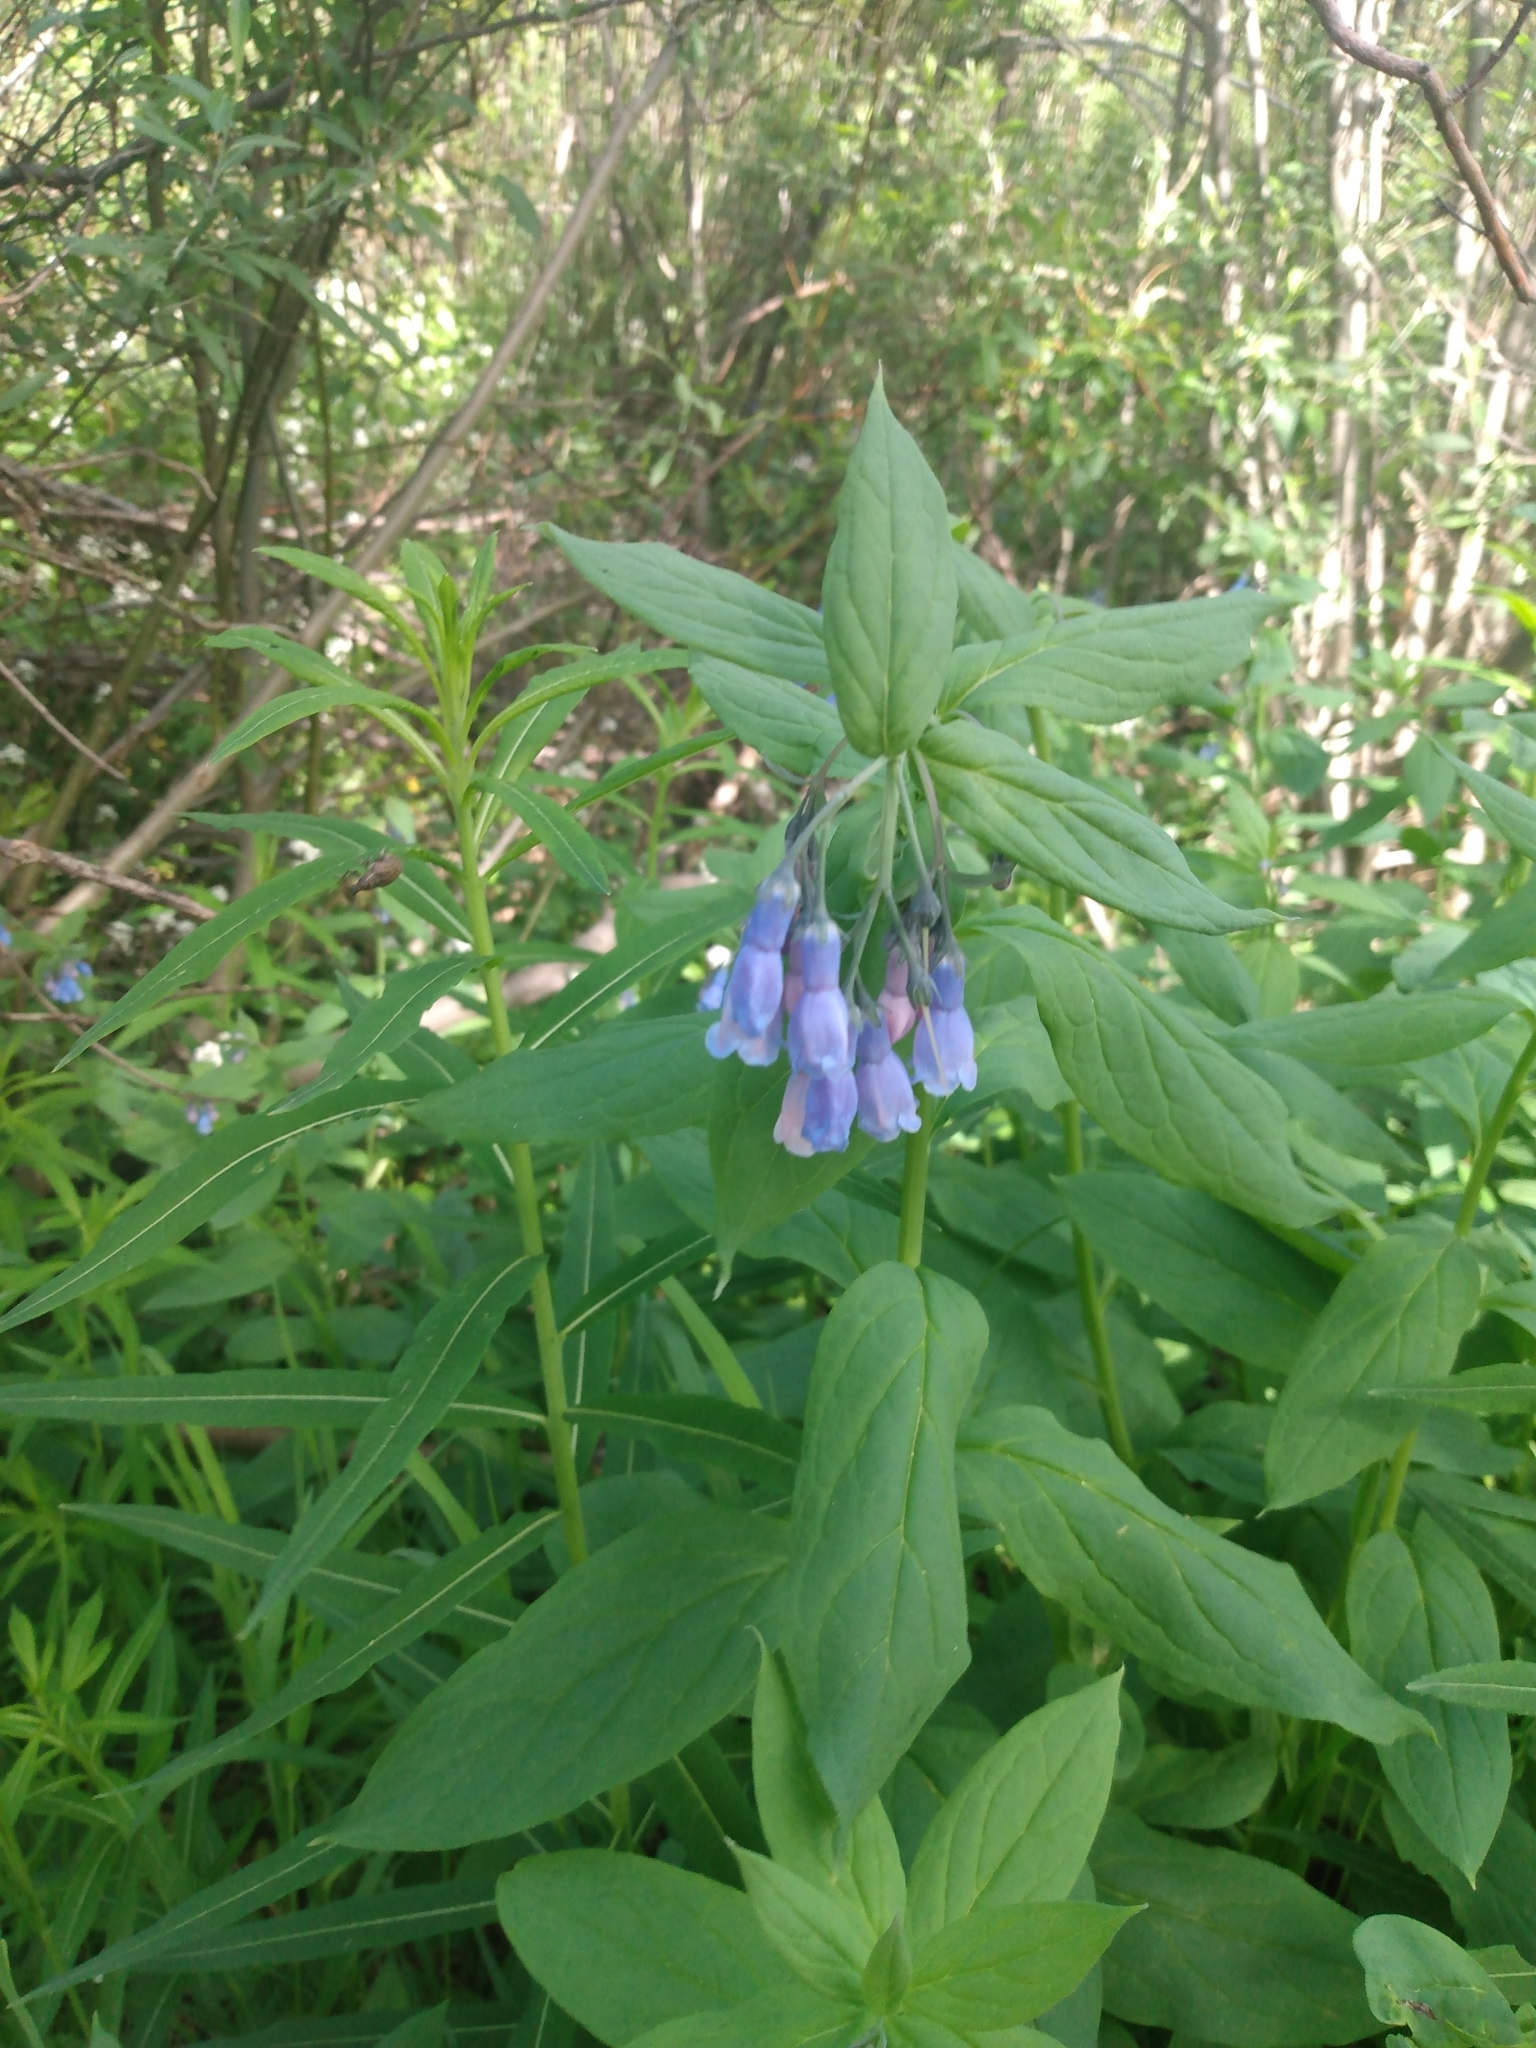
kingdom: Plantae
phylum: Tracheophyta
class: Magnoliopsida
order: Boraginales
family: Boraginaceae
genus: Mertensia
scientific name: Mertensia ciliata
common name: Tall chiming-bells
